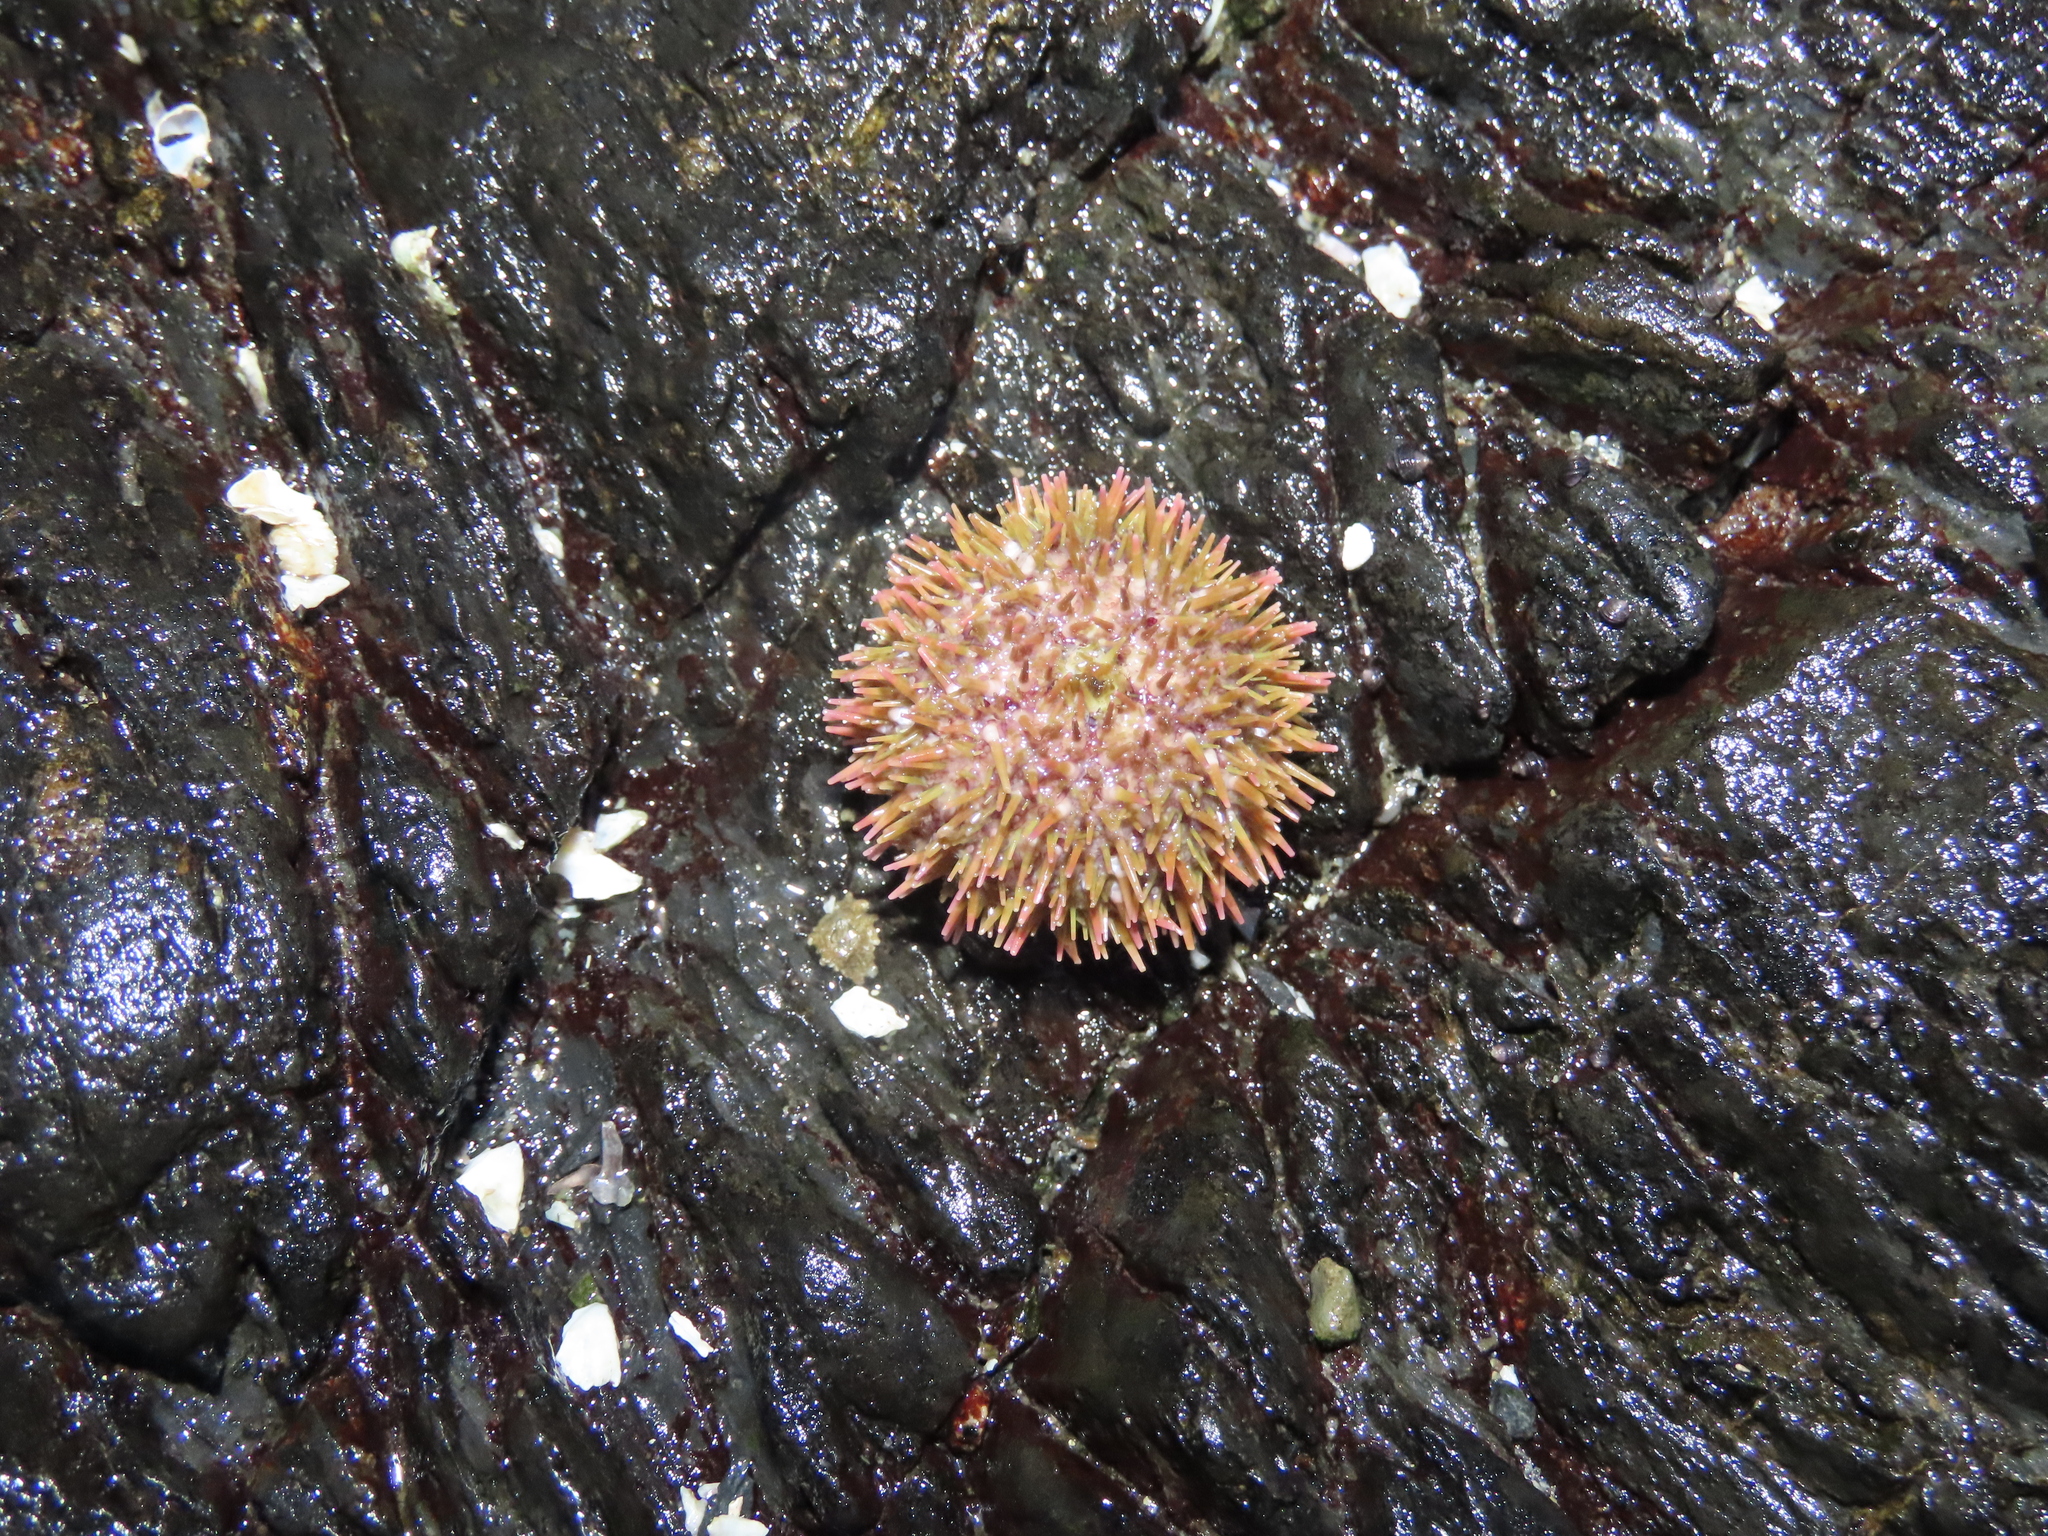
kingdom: Animalia
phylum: Echinodermata
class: Echinoidea
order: Camarodonta
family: Strongylocentrotidae
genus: Strongylocentrotus
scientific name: Strongylocentrotus purpuratus
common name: Purple sea urchin
